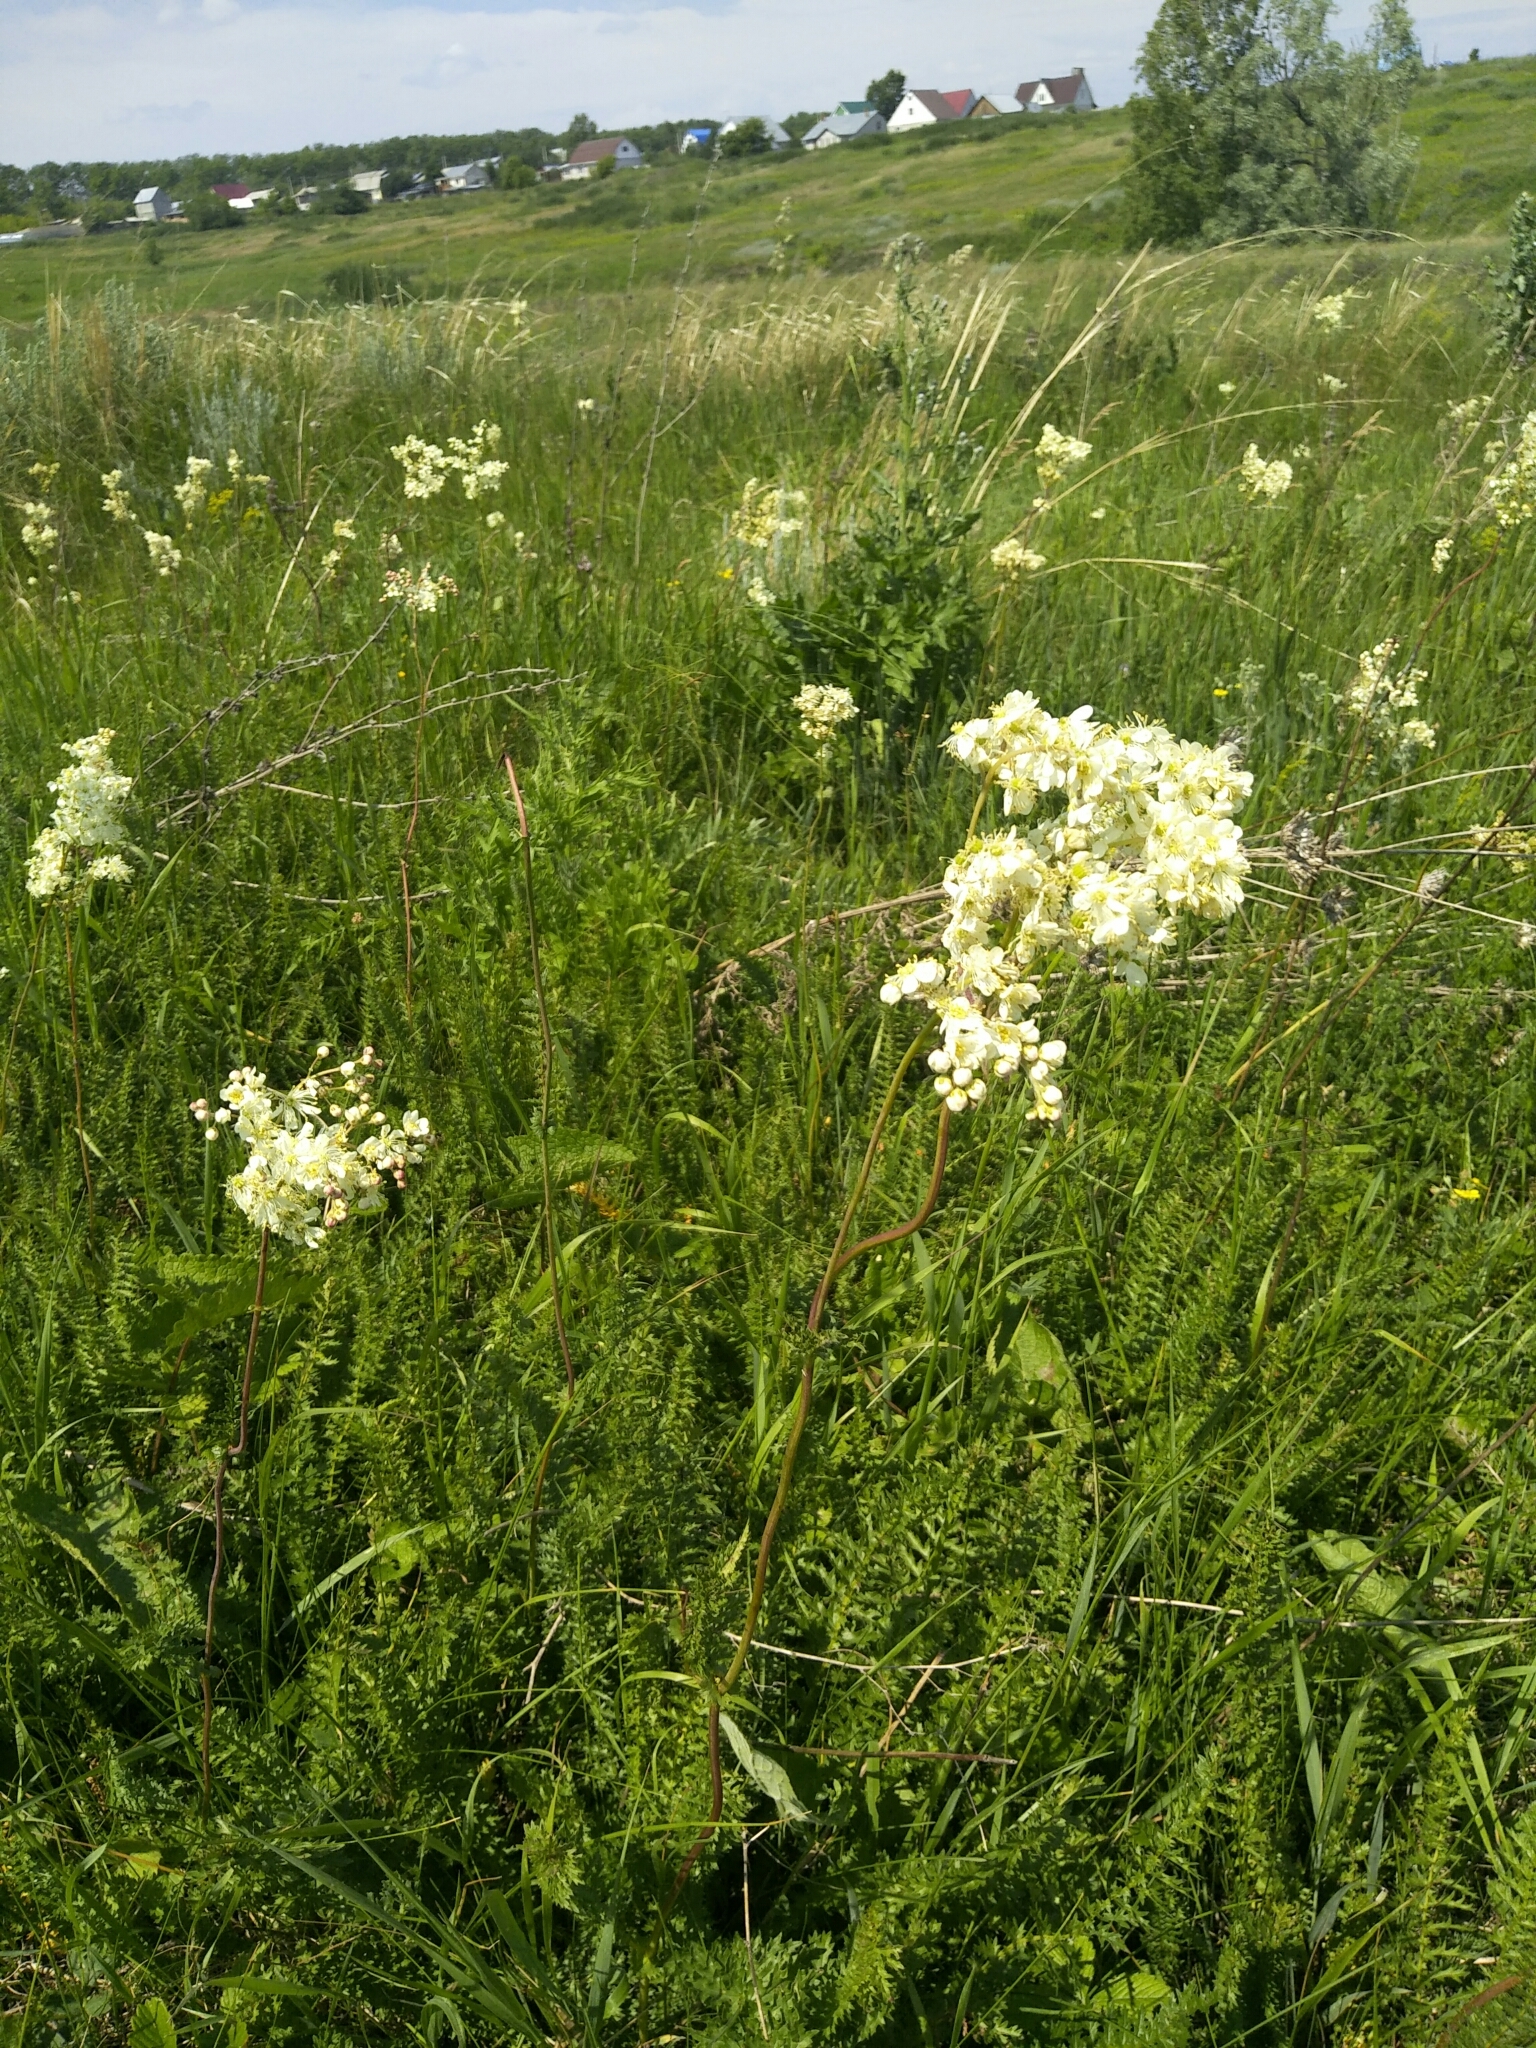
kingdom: Plantae
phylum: Tracheophyta
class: Magnoliopsida
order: Rosales
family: Rosaceae
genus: Filipendula
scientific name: Filipendula vulgaris
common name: Dropwort
